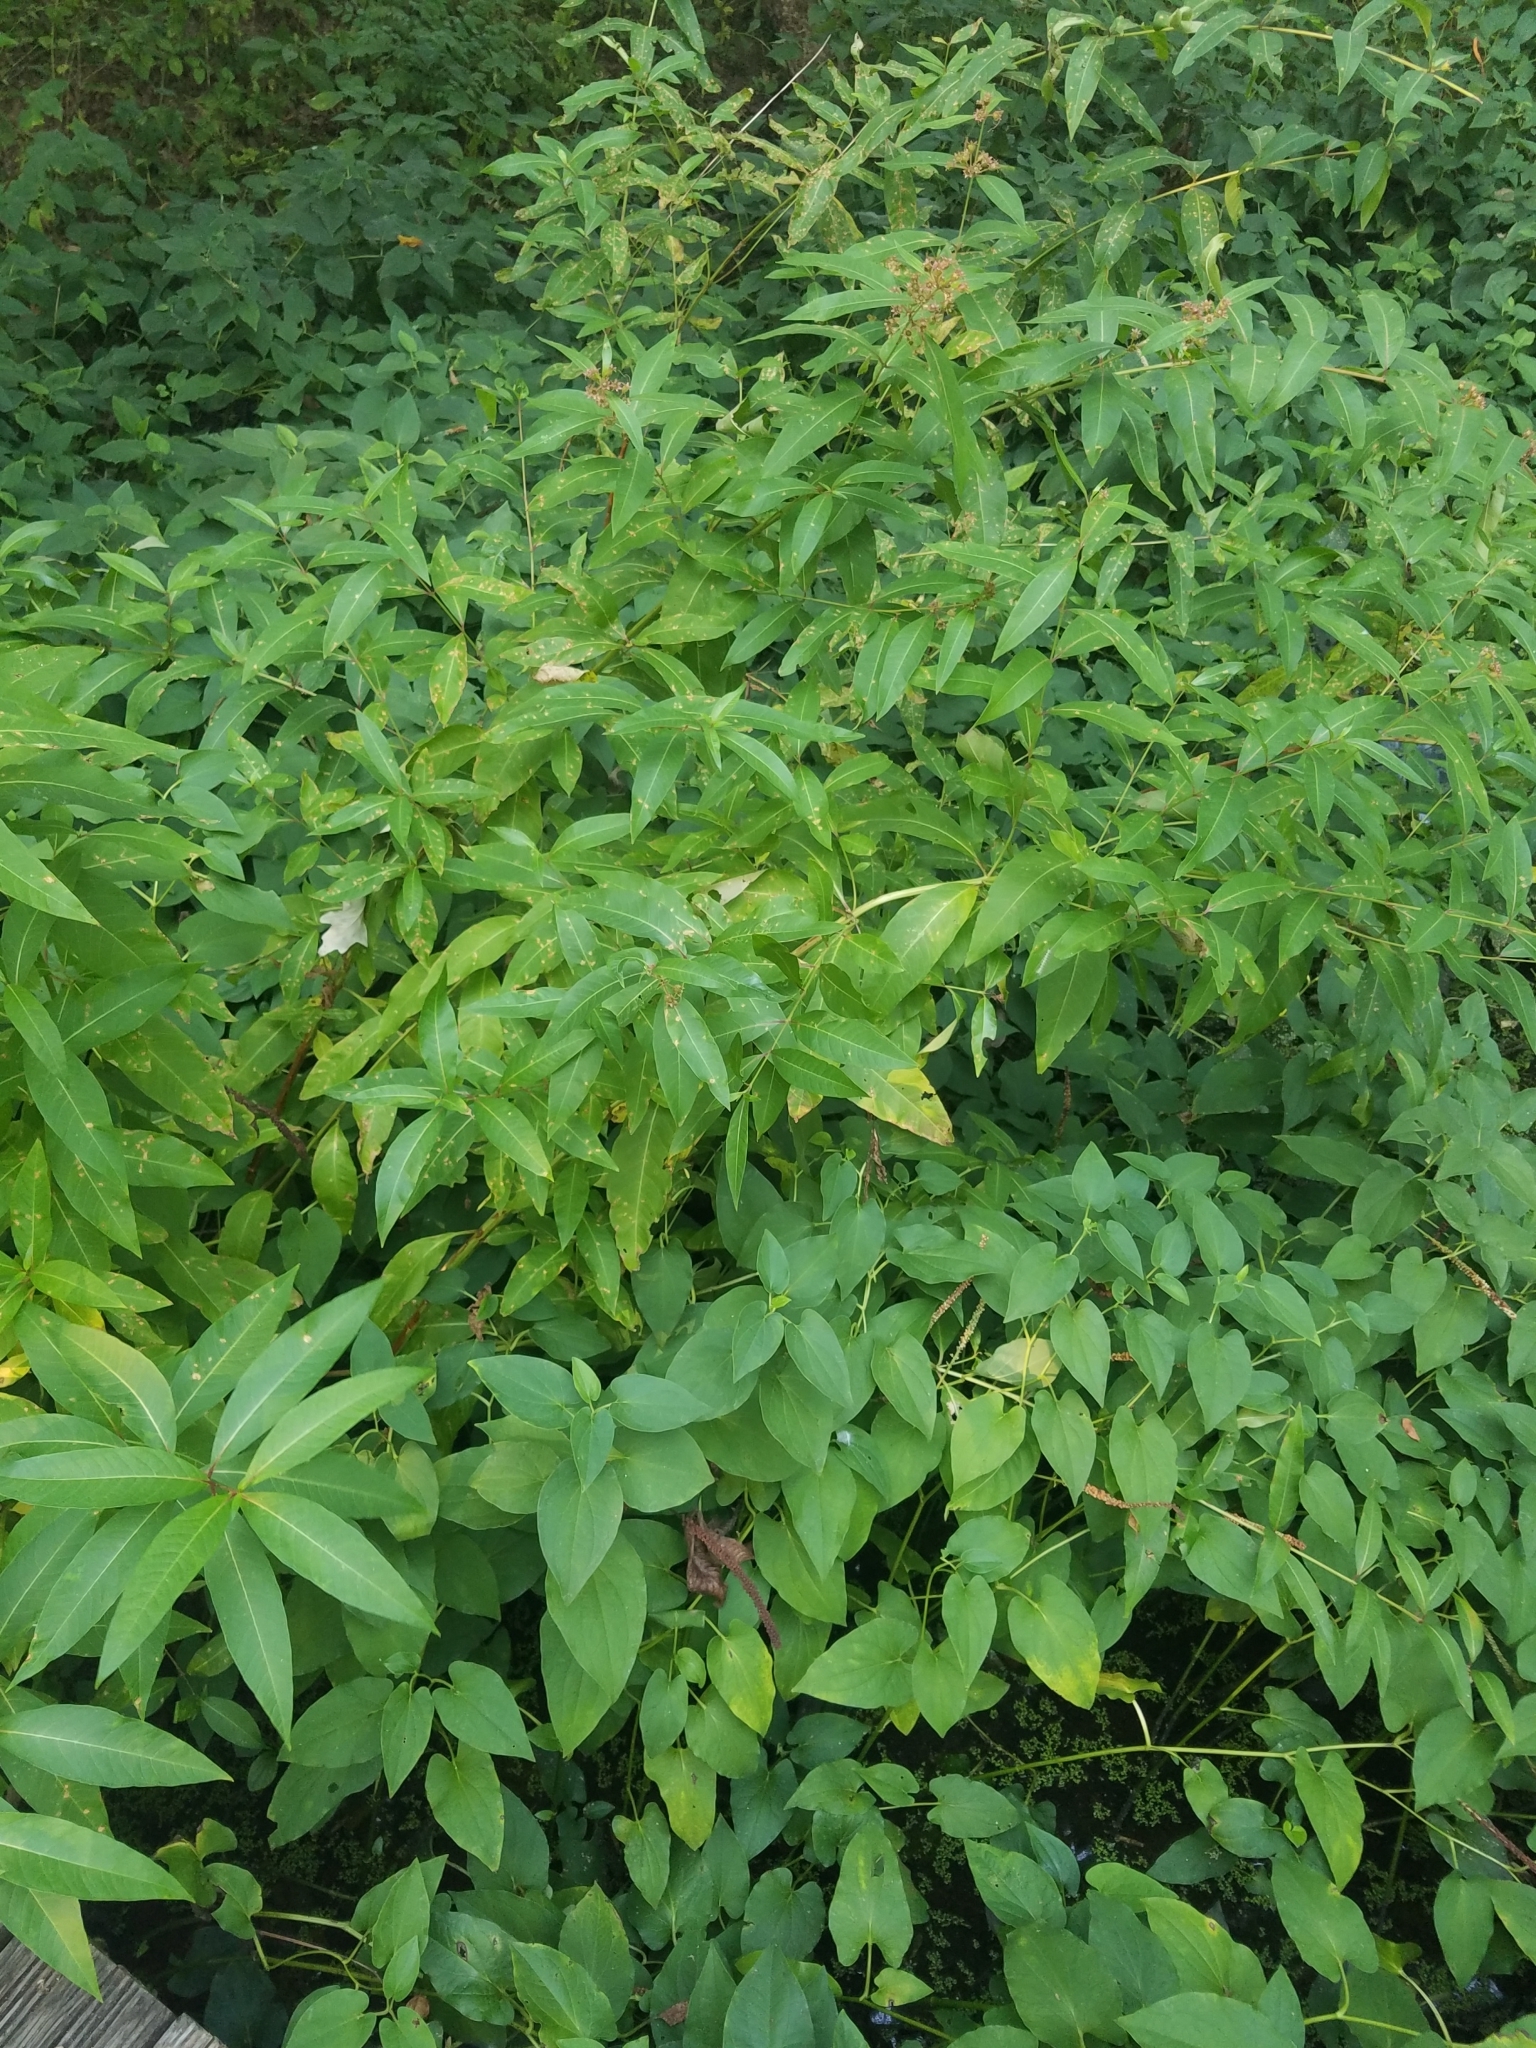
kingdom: Plantae
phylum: Tracheophyta
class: Magnoliopsida
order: Myrtales
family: Lythraceae
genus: Decodon
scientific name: Decodon verticillatus
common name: Hairy swamp loosestrife
